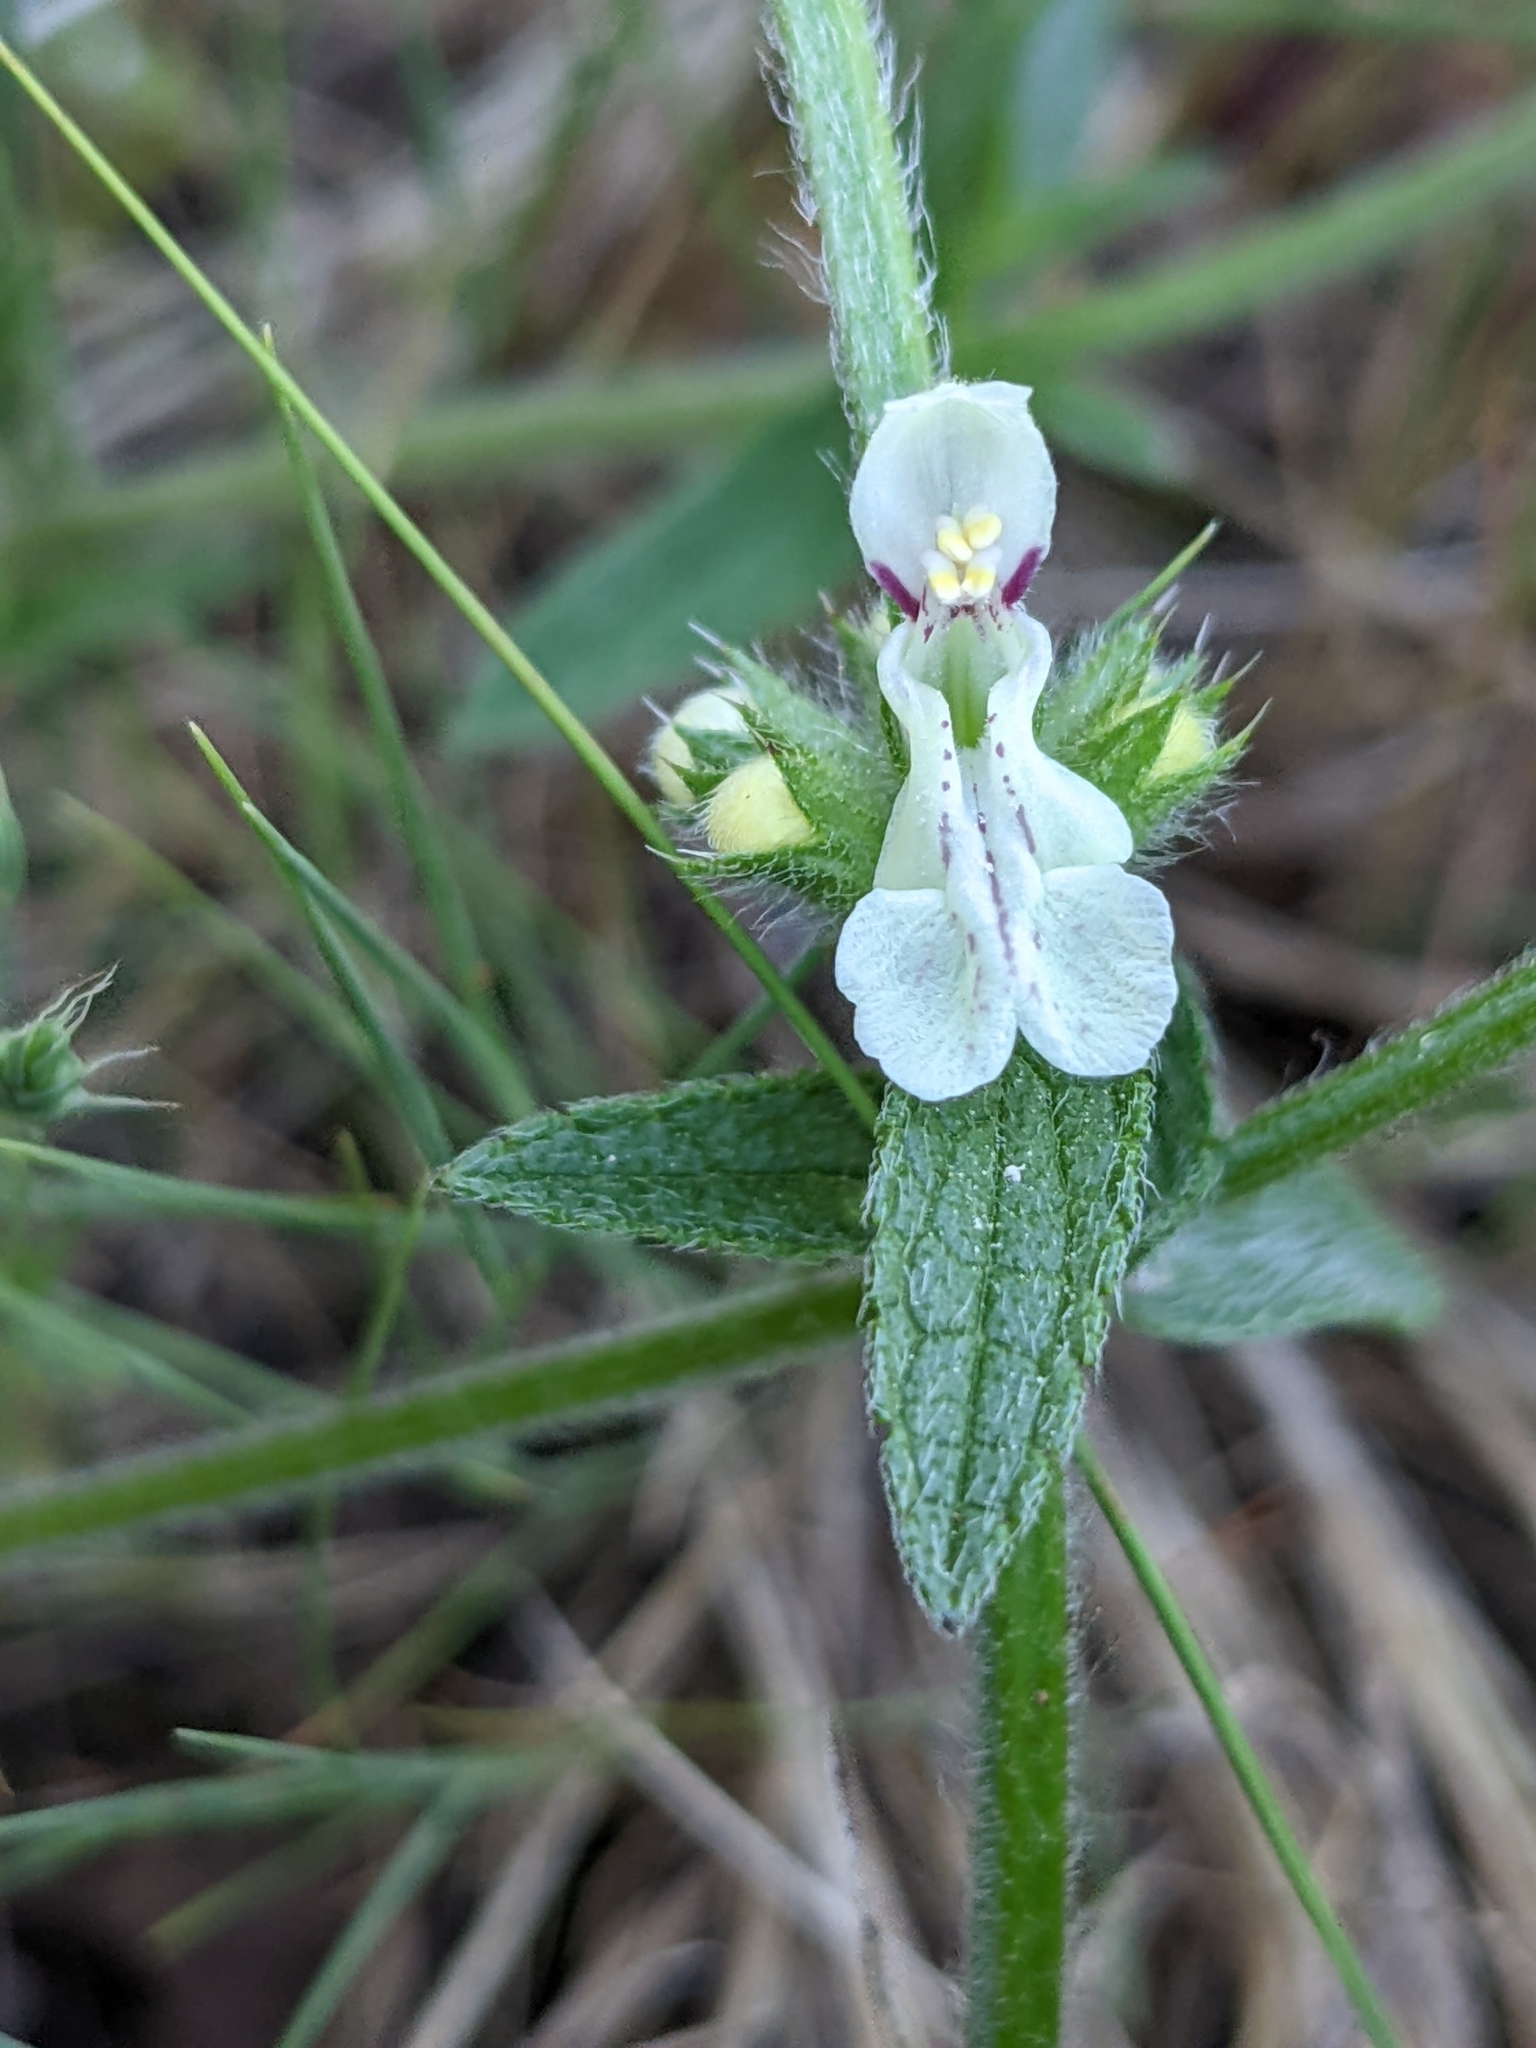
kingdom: Plantae
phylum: Tracheophyta
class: Magnoliopsida
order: Lamiales
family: Lamiaceae
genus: Stachys
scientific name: Stachys recta
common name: Perennial yellow-woundwort
